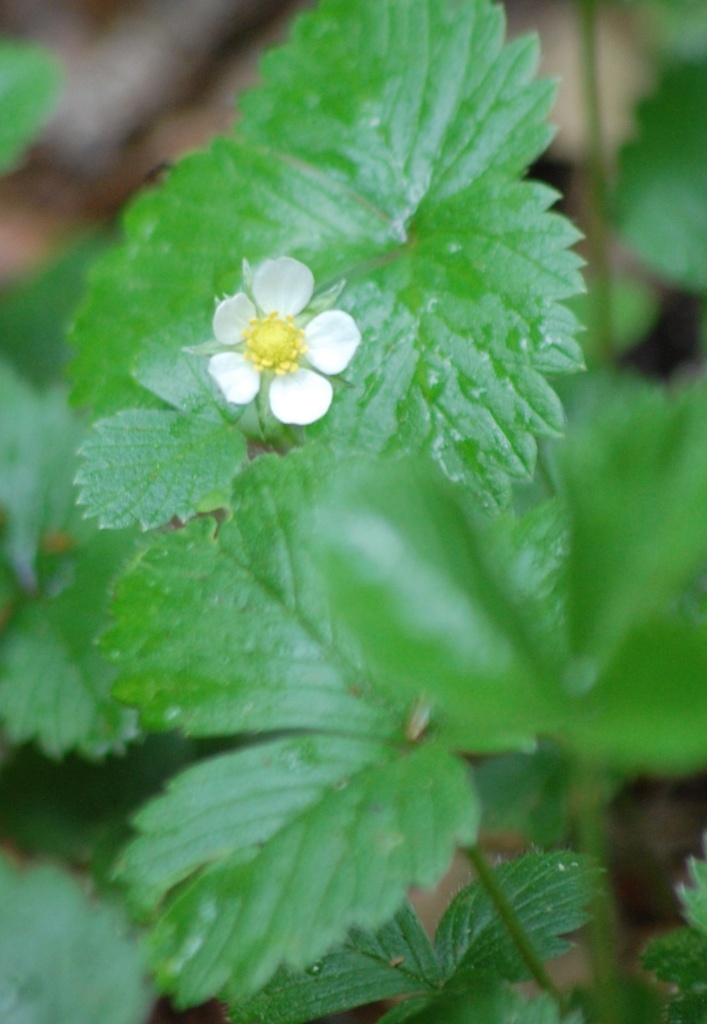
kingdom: Plantae
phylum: Tracheophyta
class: Magnoliopsida
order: Rosales
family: Rosaceae
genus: Fragaria
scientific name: Fragaria vesca
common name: Wild strawberry
